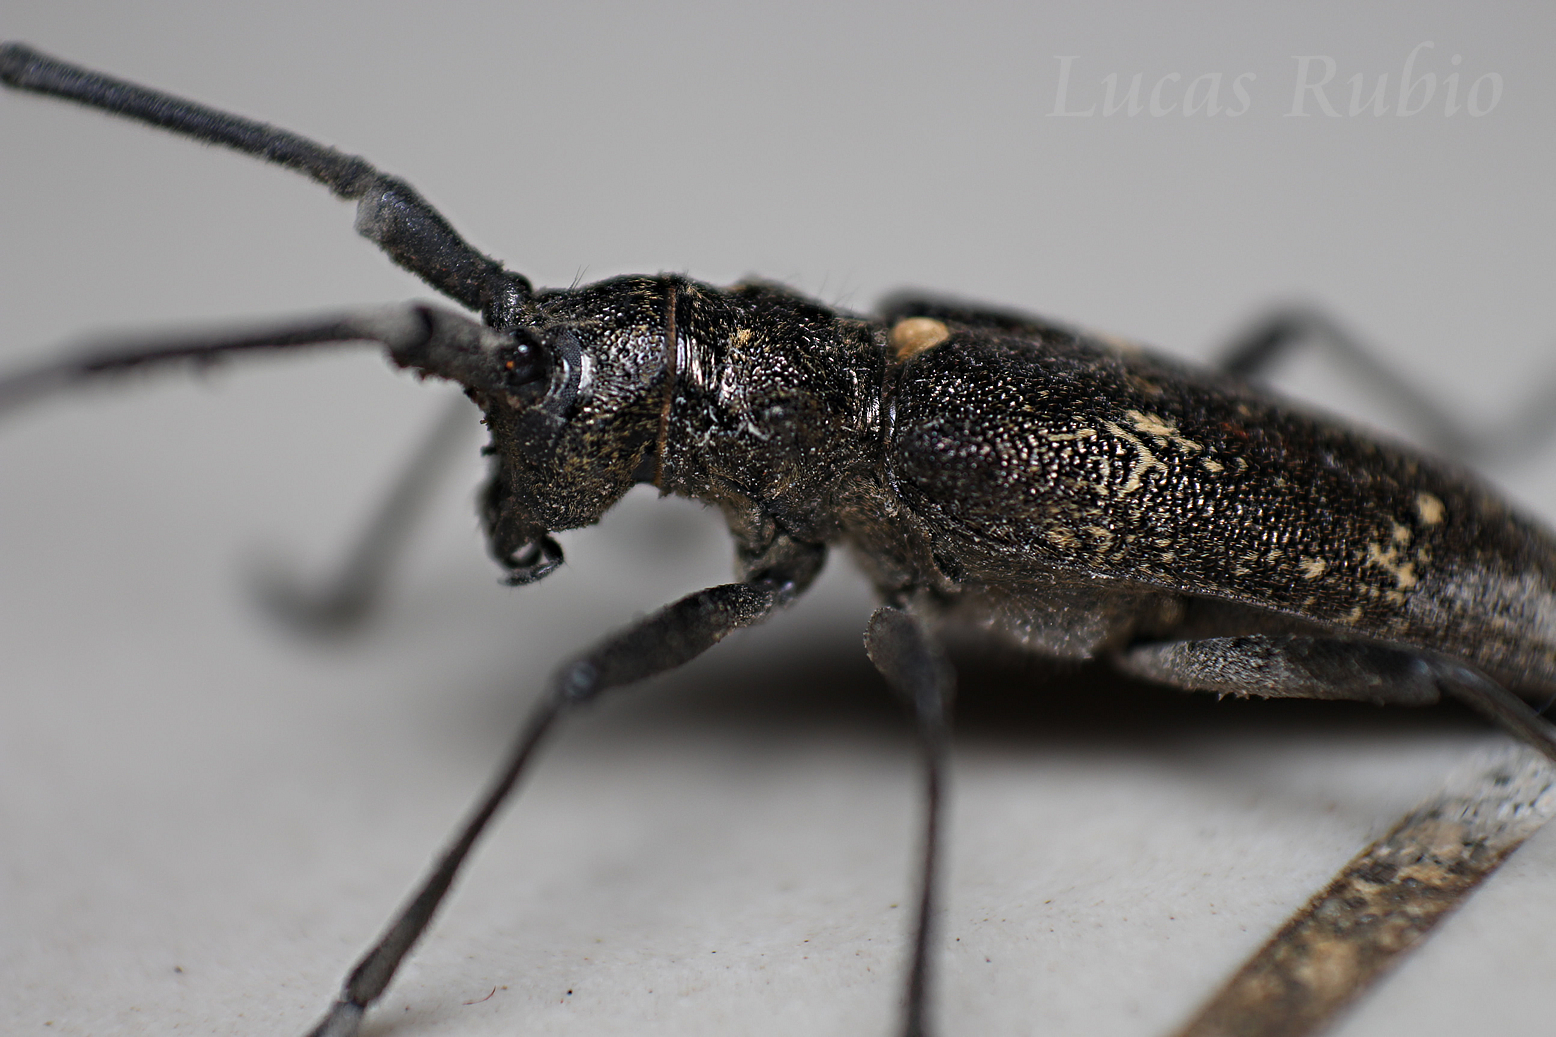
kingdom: Animalia
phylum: Arthropoda
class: Insecta
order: Coleoptera
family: Cerambycidae
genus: Monochamus
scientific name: Monochamus sartor
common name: Pine sawyer
